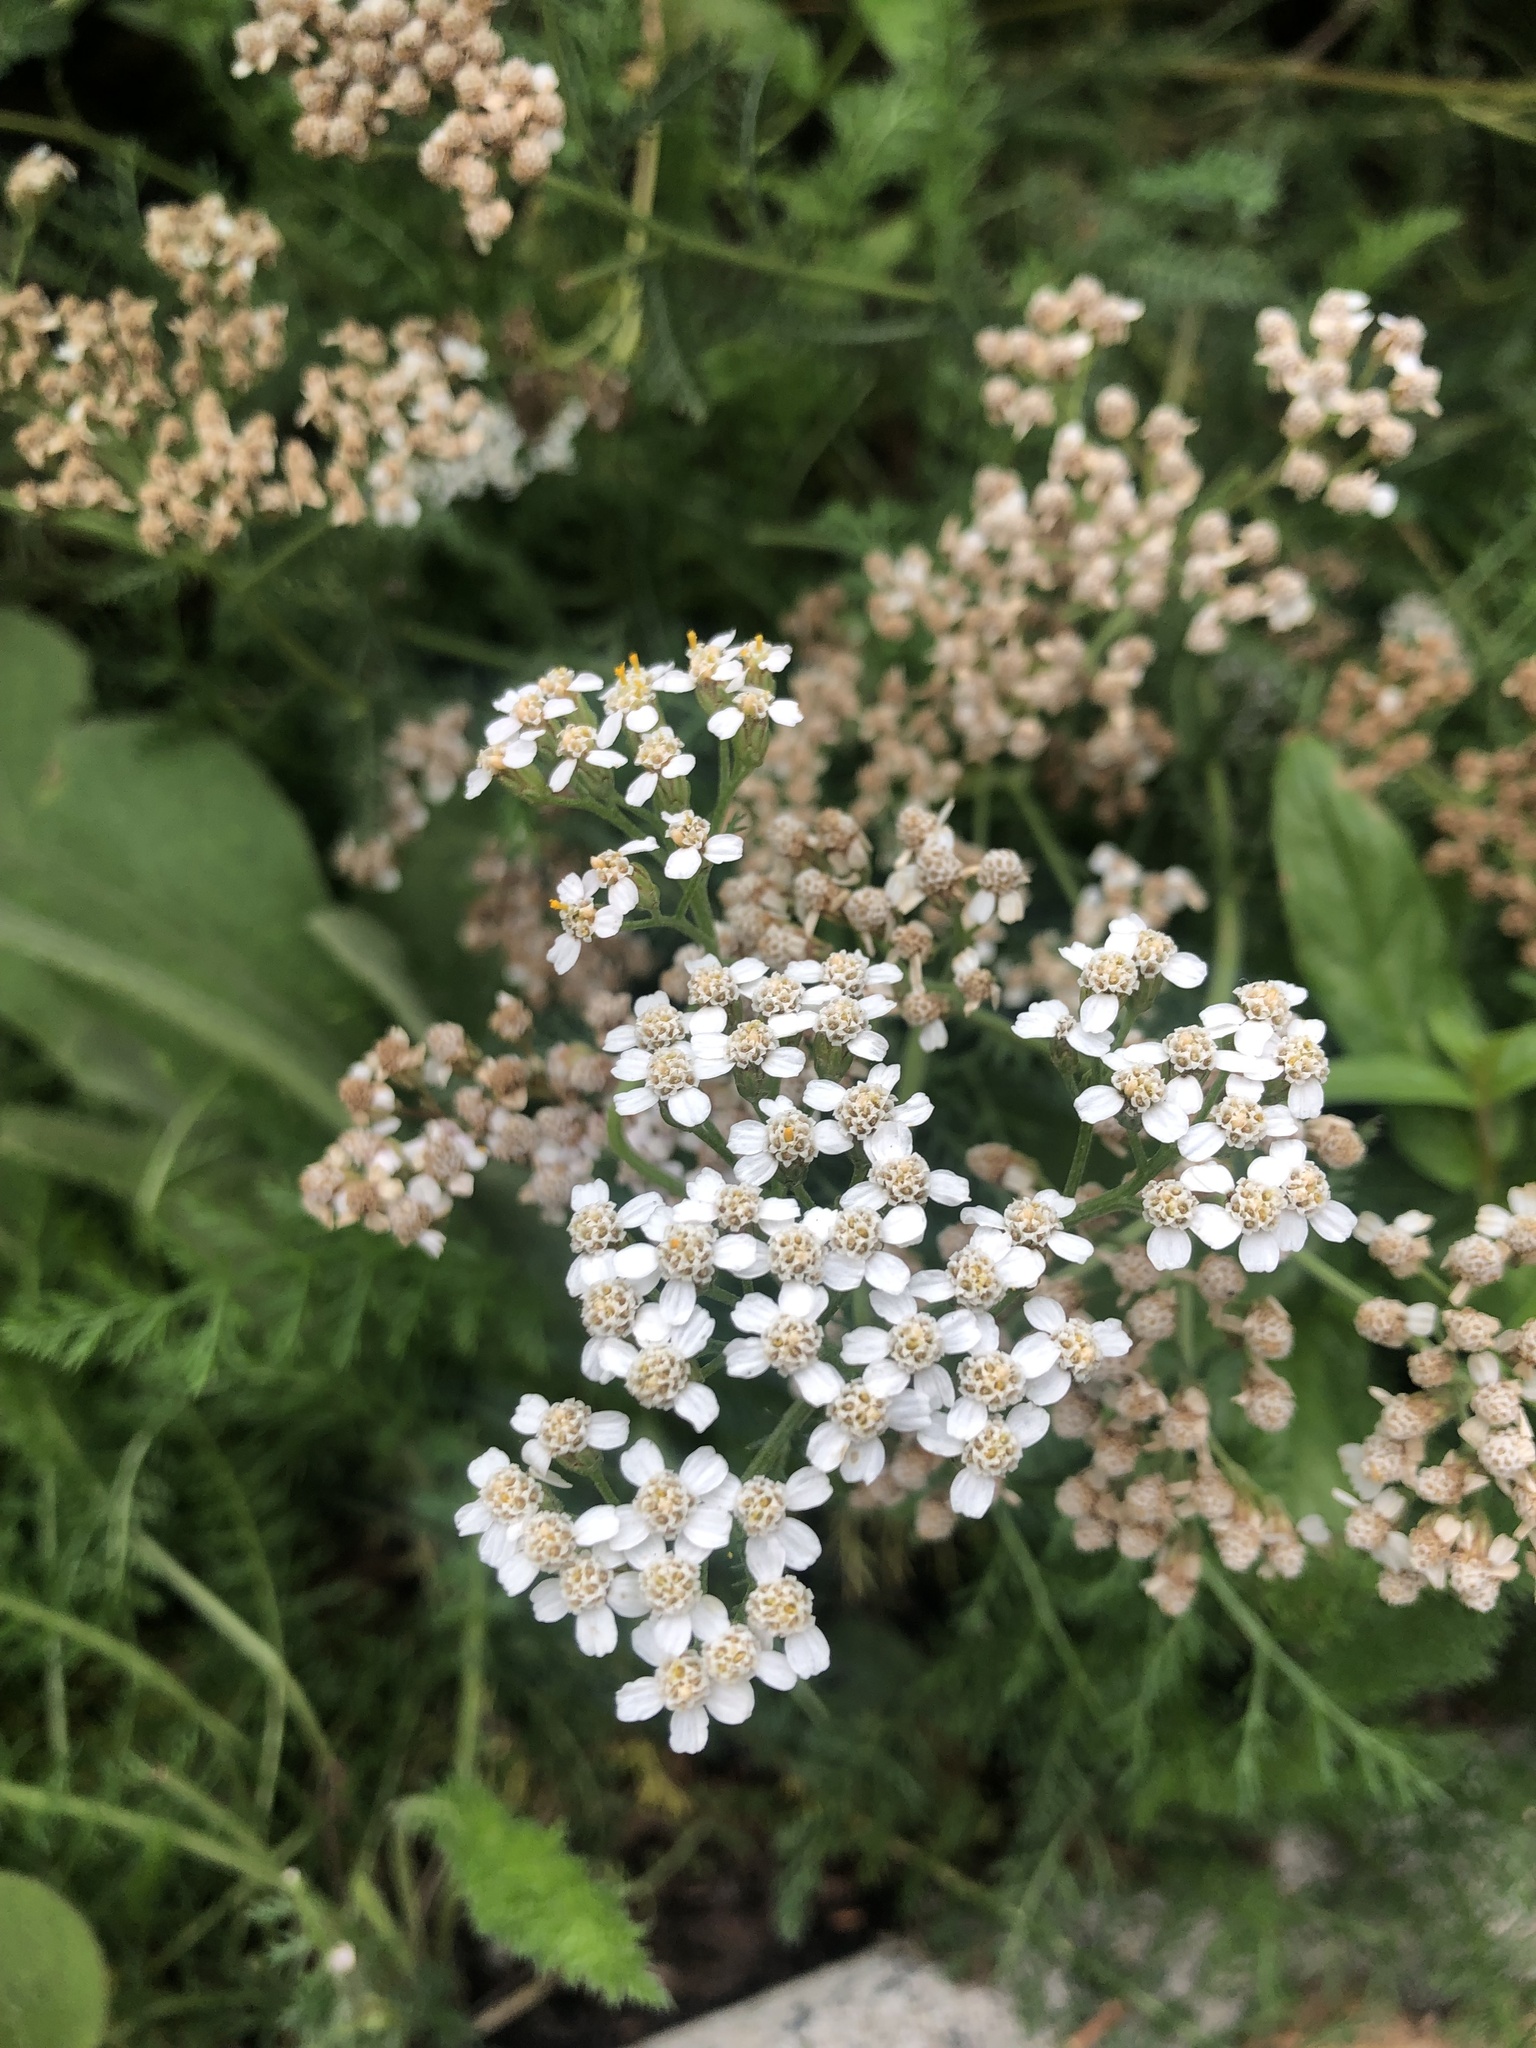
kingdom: Plantae
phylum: Tracheophyta
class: Magnoliopsida
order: Asterales
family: Asteraceae
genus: Achillea
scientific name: Achillea millefolium
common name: Yarrow
